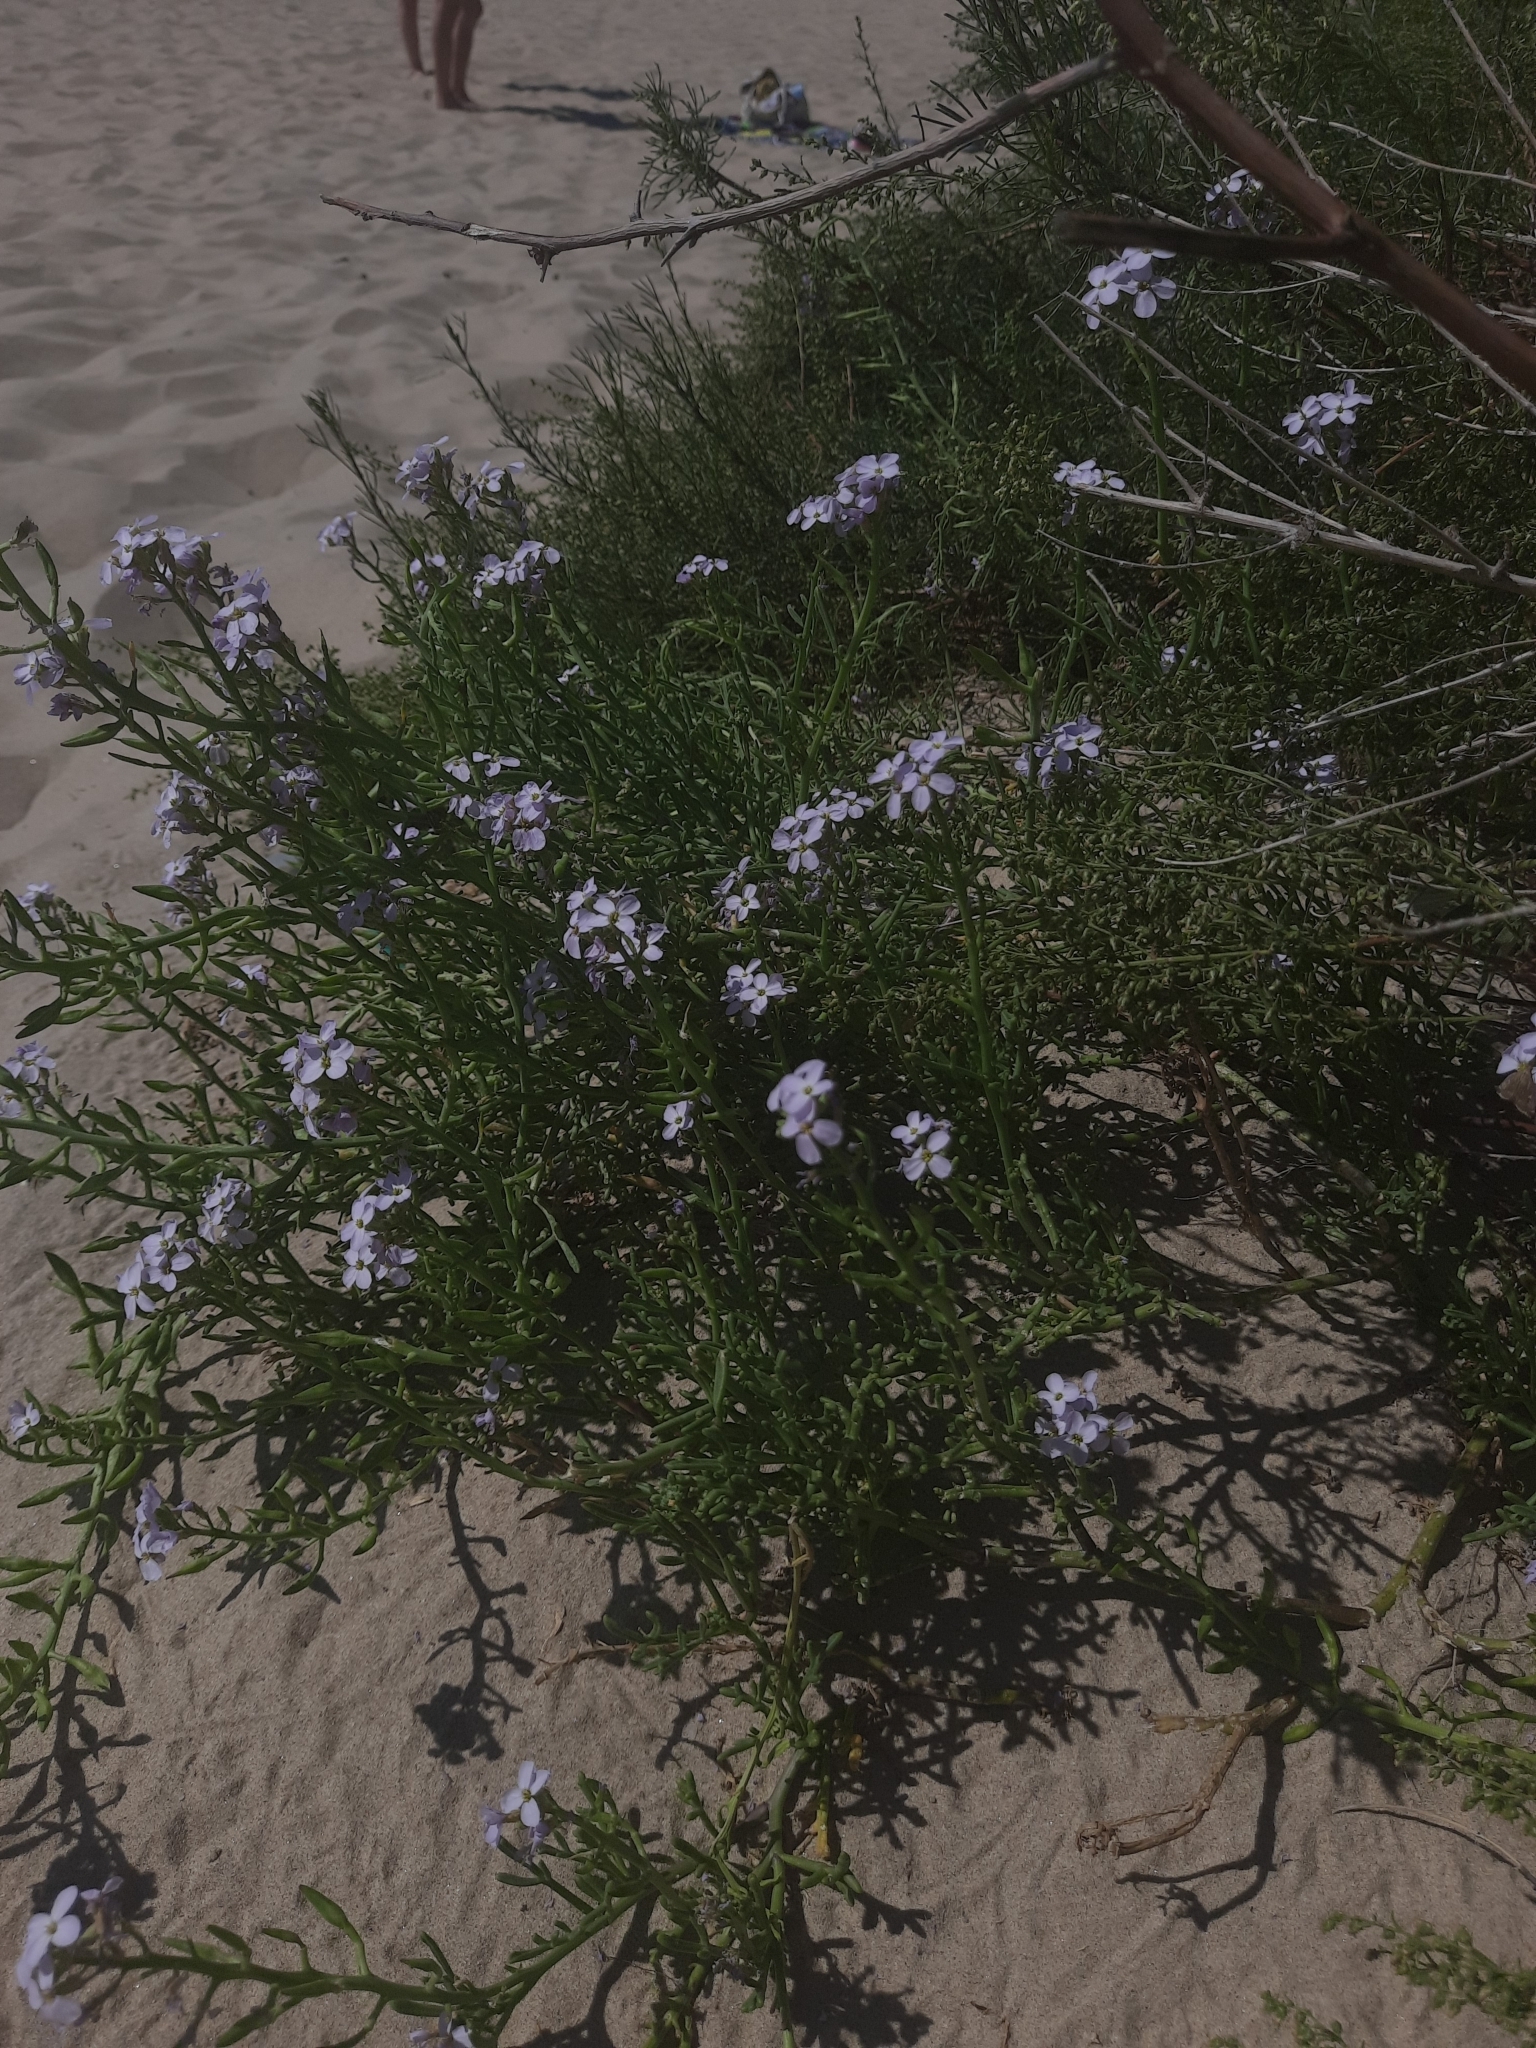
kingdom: Plantae
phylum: Tracheophyta
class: Magnoliopsida
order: Brassicales
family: Brassicaceae
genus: Cakile
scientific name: Cakile maritima
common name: Sea rocket
